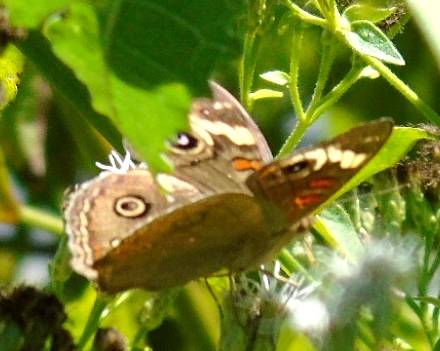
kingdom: Animalia
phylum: Arthropoda
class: Insecta
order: Lepidoptera
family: Nymphalidae
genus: Junonia
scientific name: Junonia coenia
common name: Common buckeye
